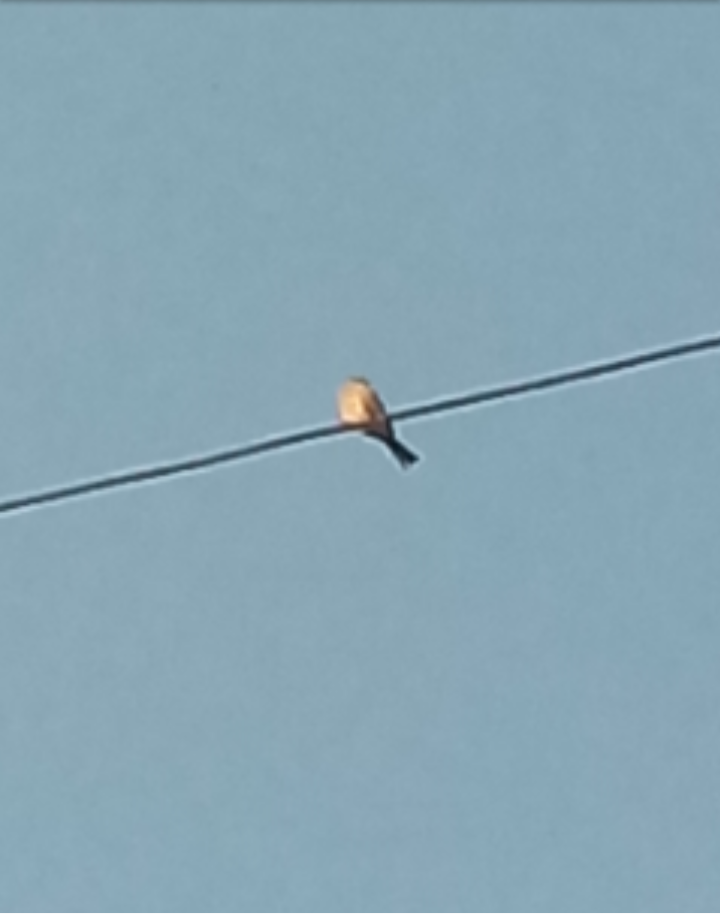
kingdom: Animalia
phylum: Chordata
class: Aves
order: Passeriformes
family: Tyrannidae
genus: Tyrannus
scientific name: Tyrannus vociferans
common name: Cassin's kingbird
